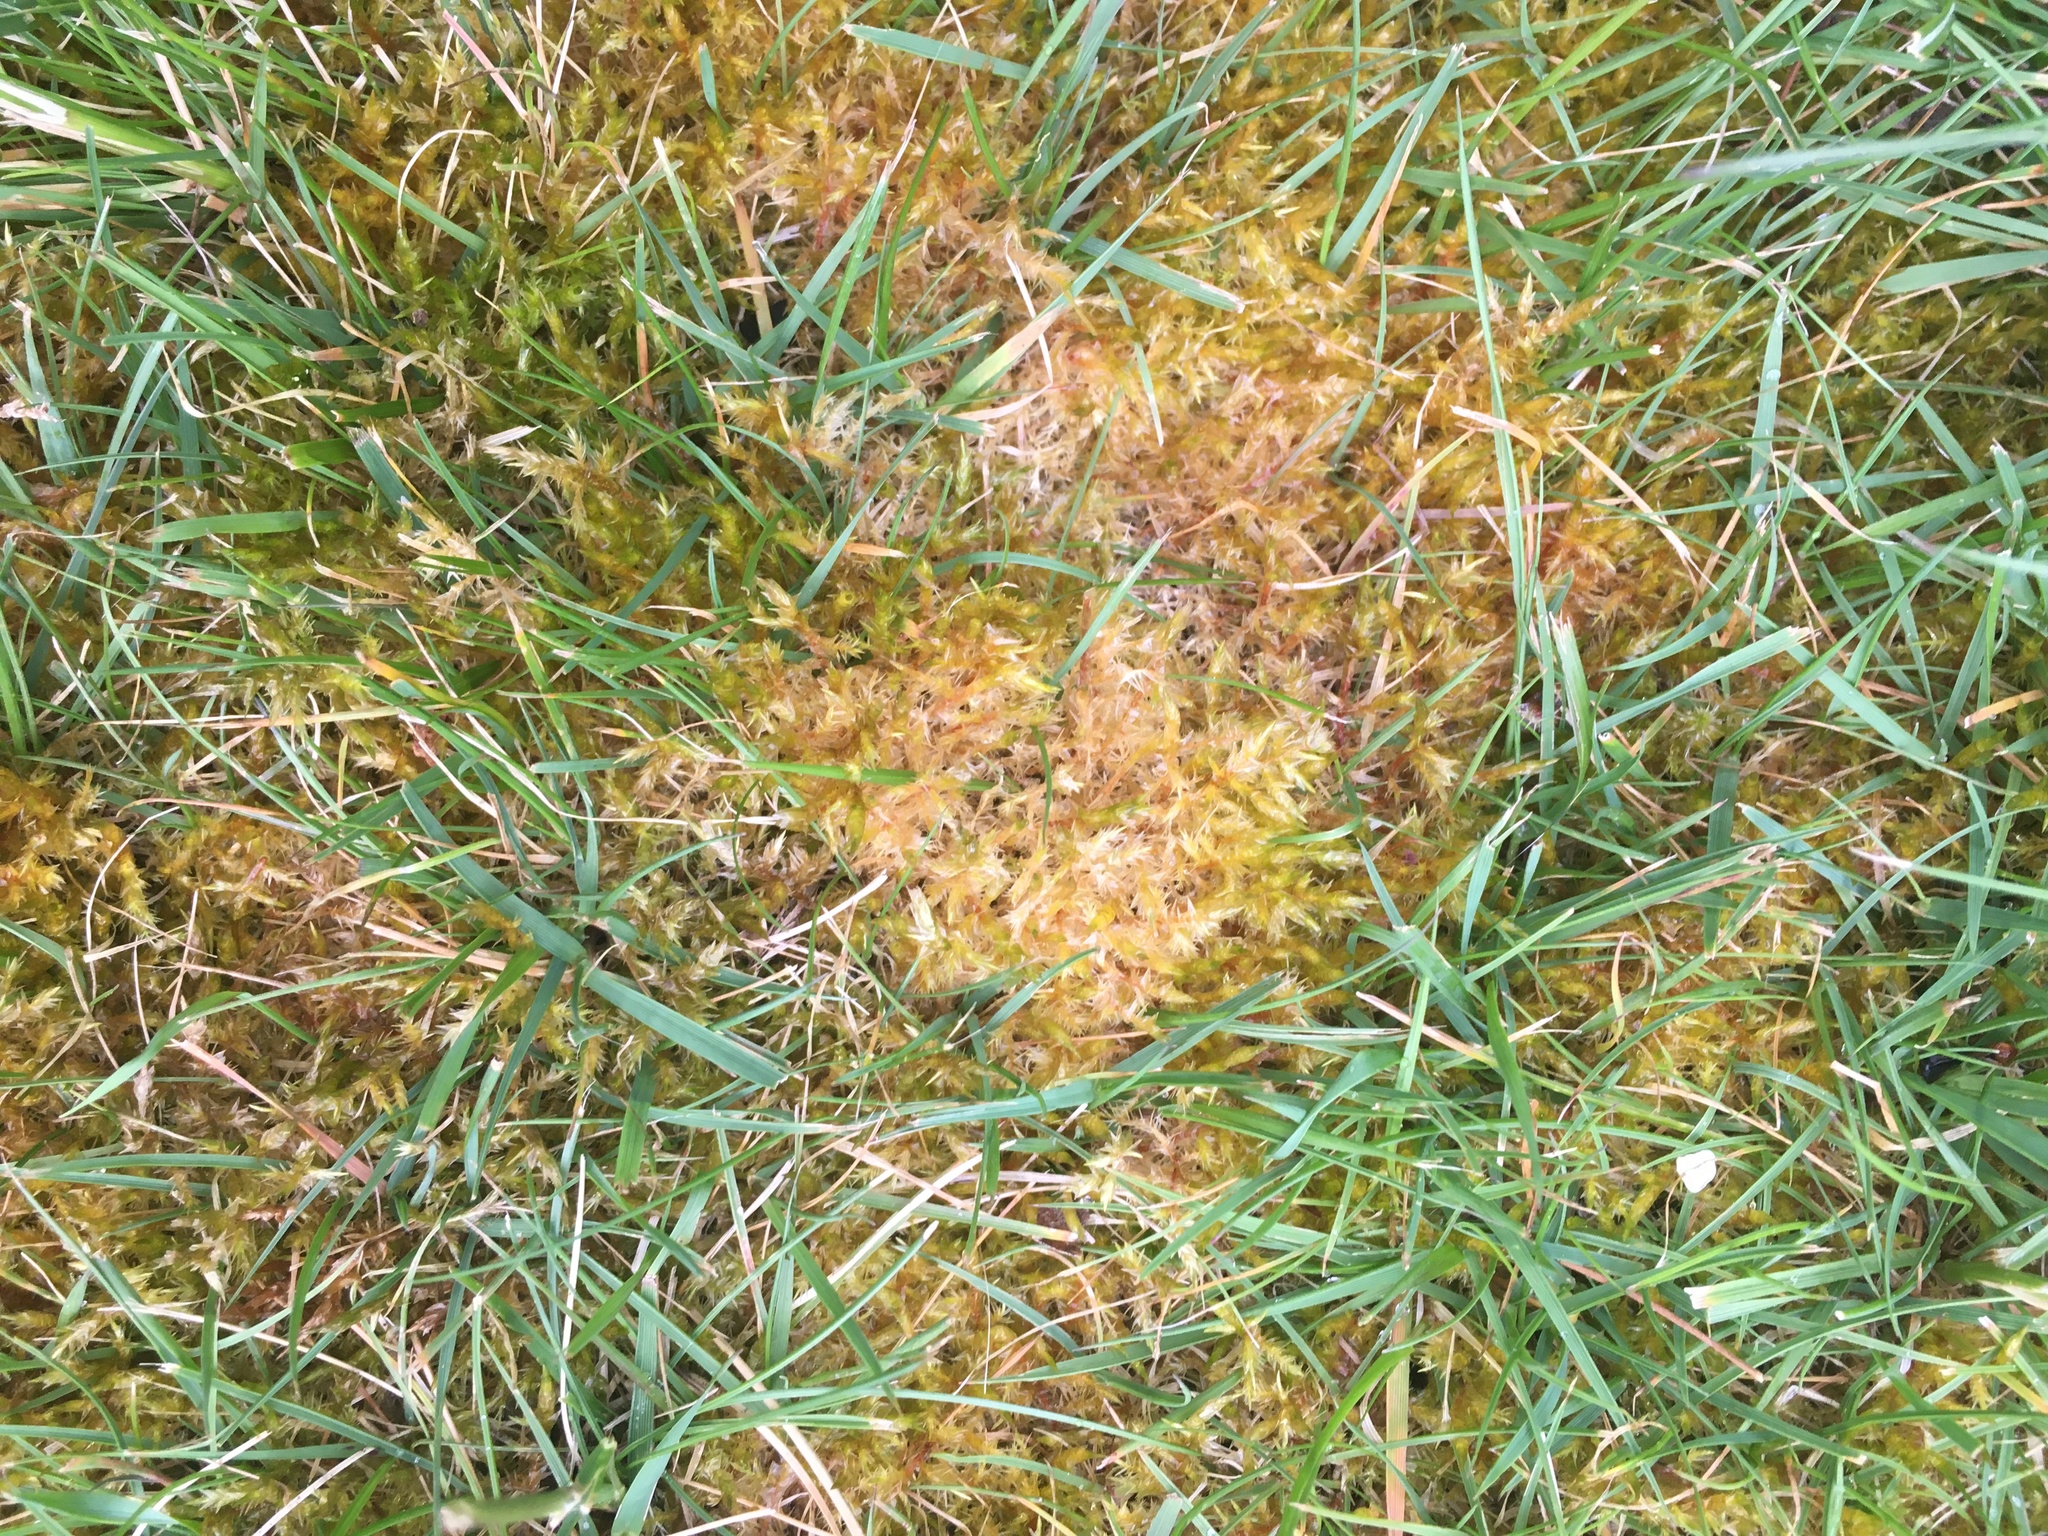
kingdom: Plantae
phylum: Bryophyta
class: Bryopsida
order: Hypnales
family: Pylaisiaceae
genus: Calliergonella
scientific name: Calliergonella cuspidata
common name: Common large wetland moss
